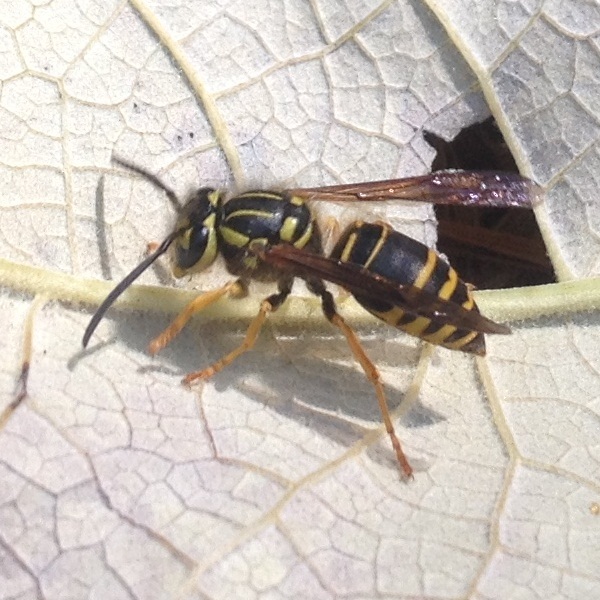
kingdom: Animalia
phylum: Arthropoda
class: Insecta
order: Hymenoptera
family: Vespidae
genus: Vespula
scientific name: Vespula squamosa
